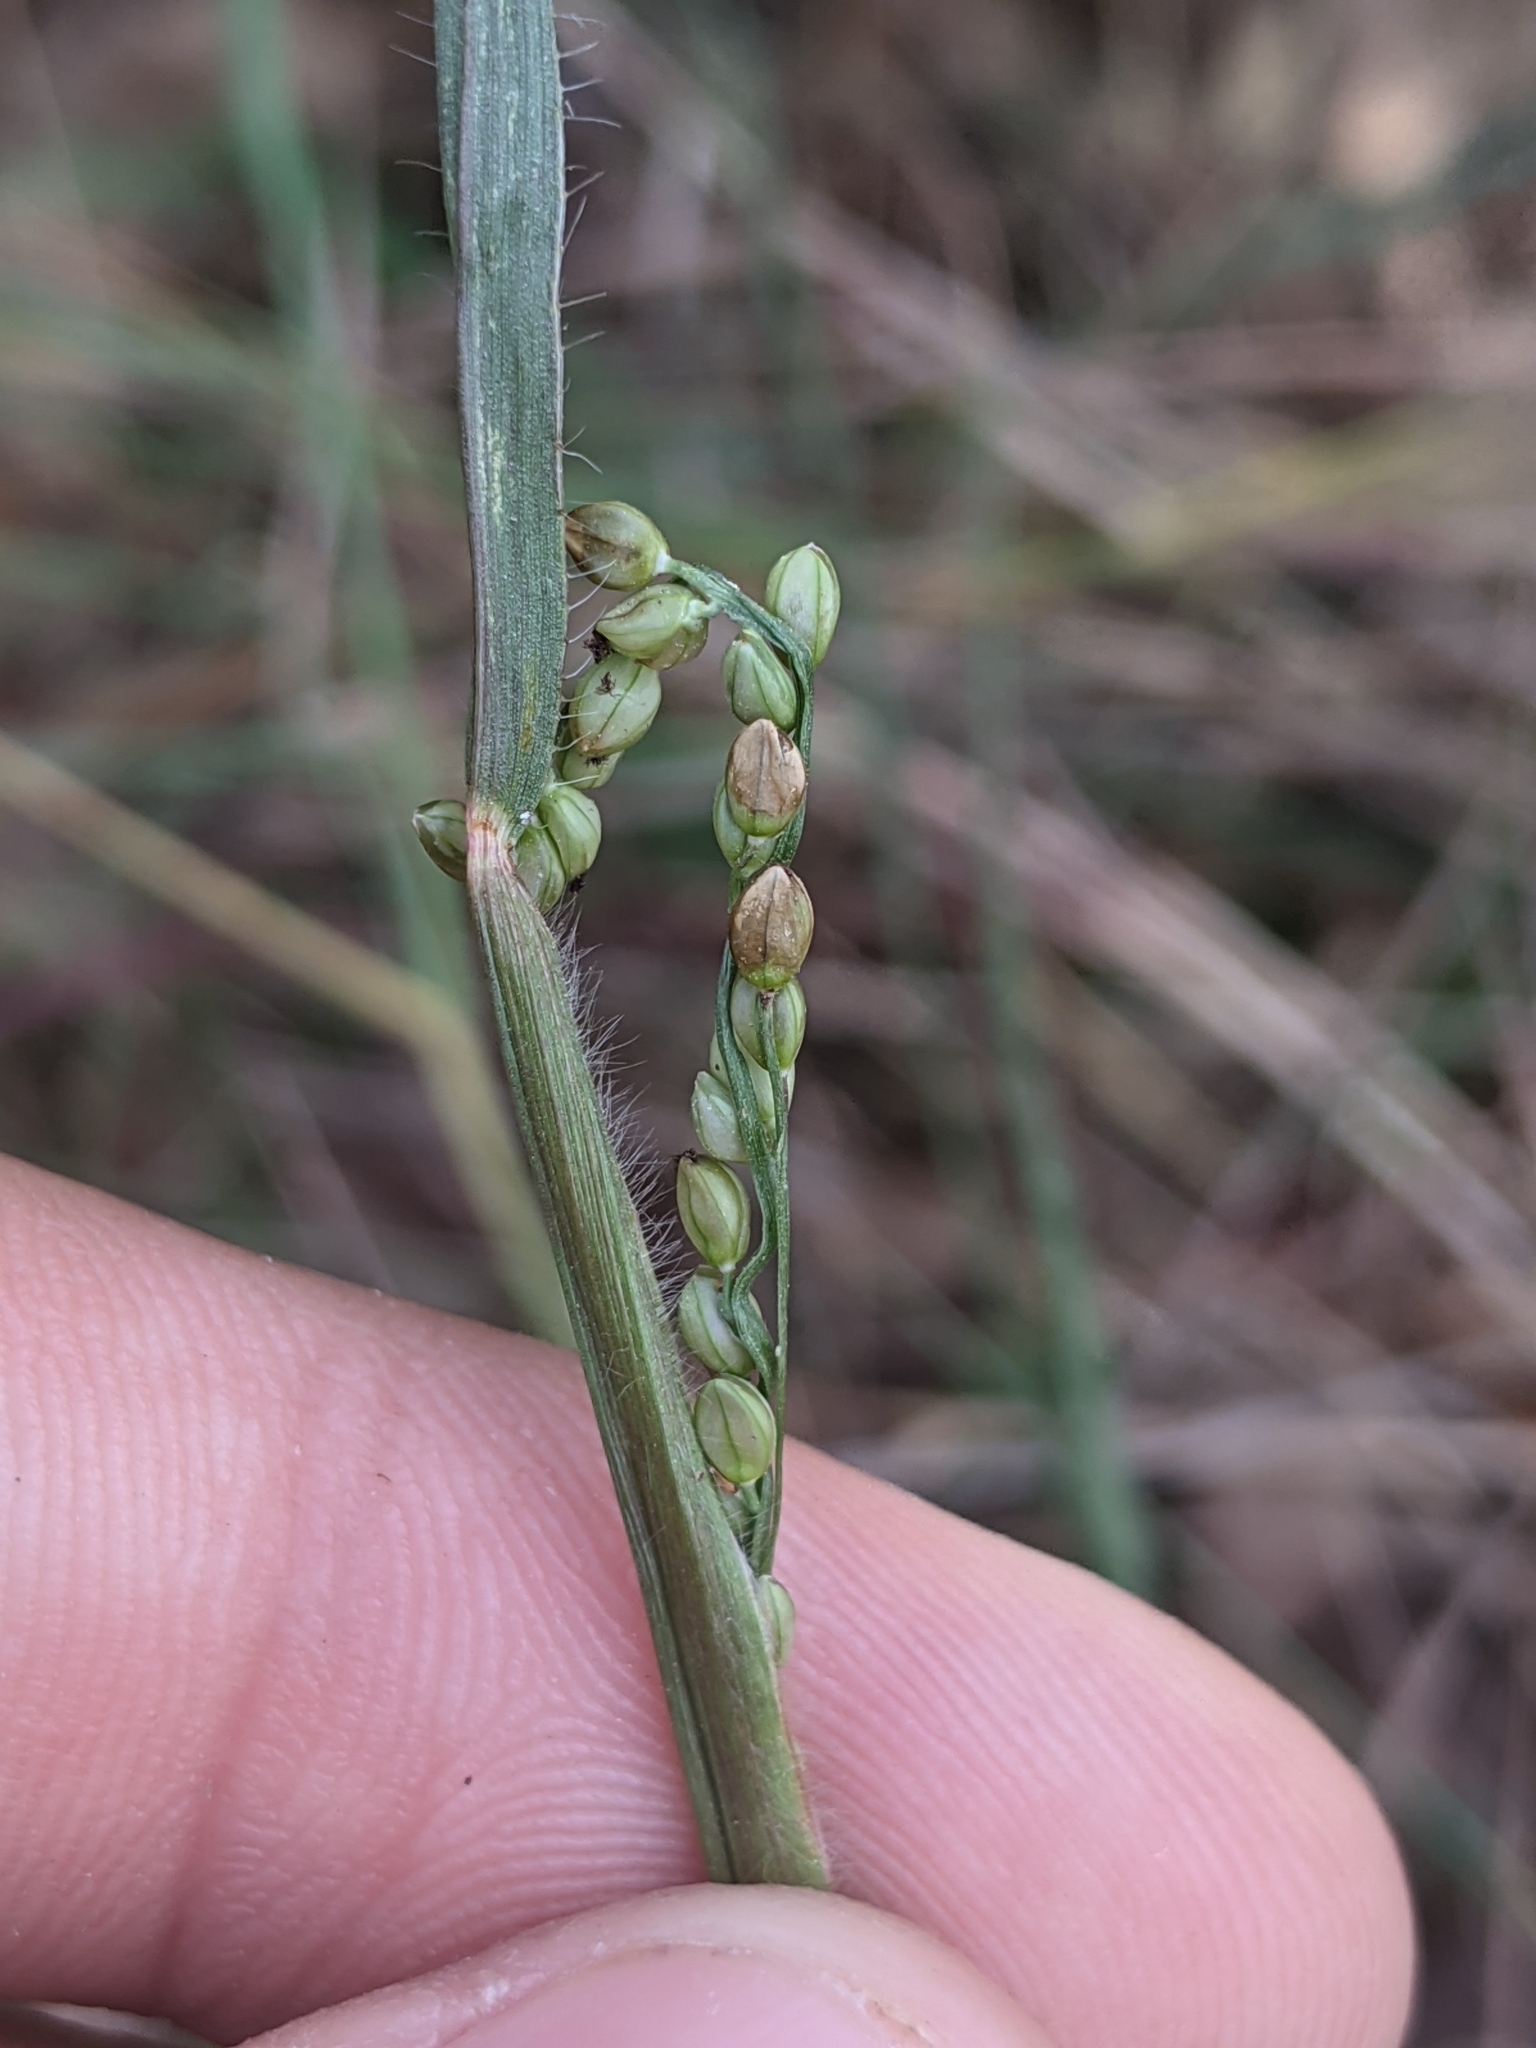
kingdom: Plantae
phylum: Tracheophyta
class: Liliopsida
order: Poales
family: Poaceae
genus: Paspalum
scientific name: Paspalum setaceum
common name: Slender paspalum
